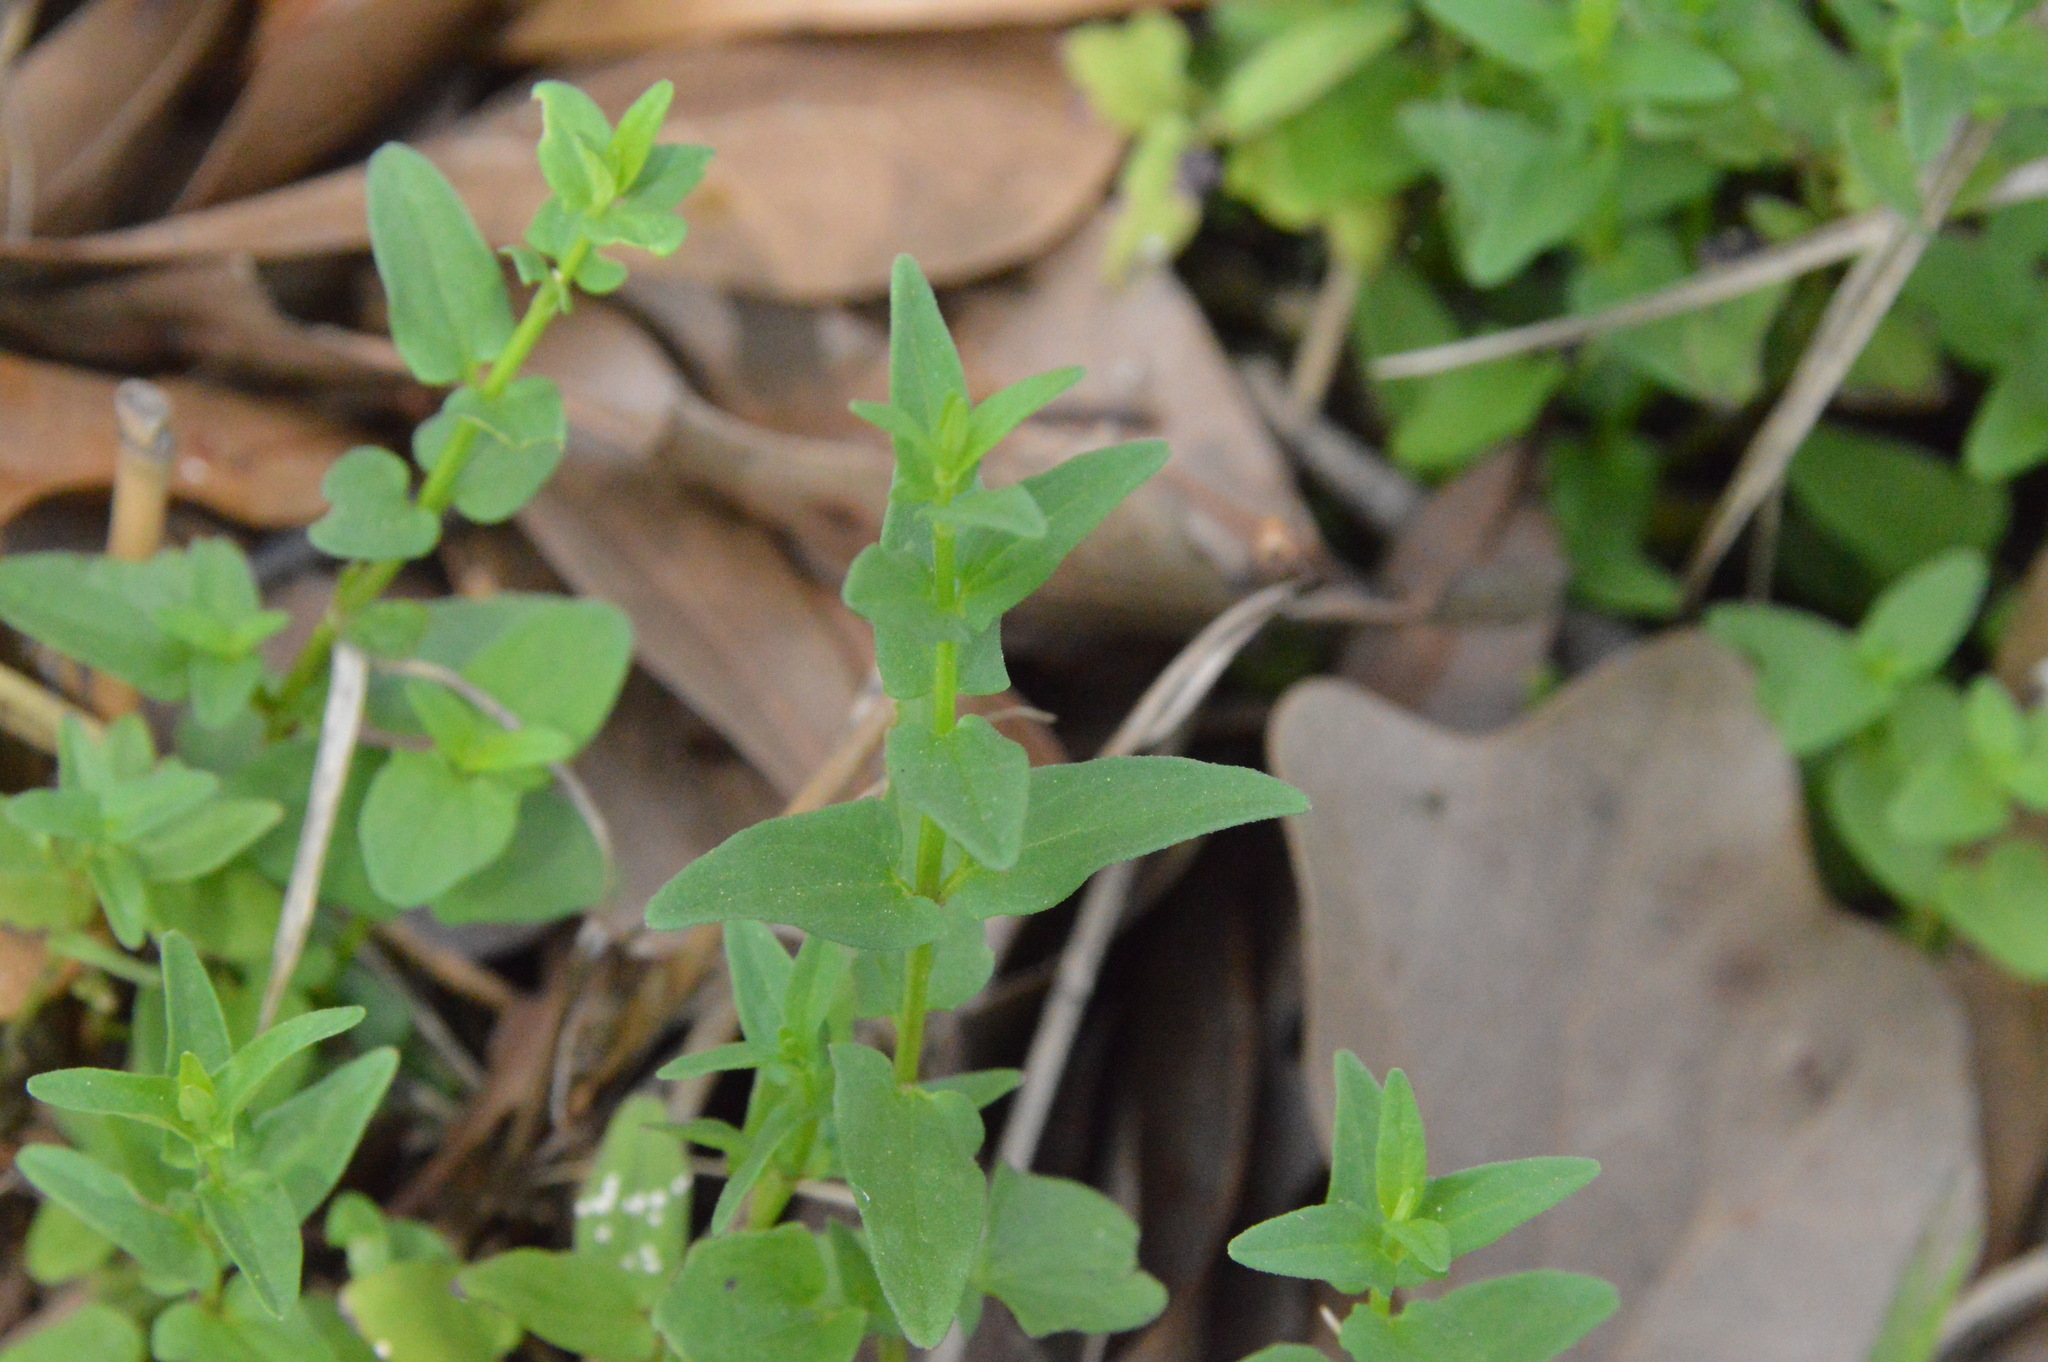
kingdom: Plantae
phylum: Tracheophyta
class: Magnoliopsida
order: Lamiales
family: Lamiaceae
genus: Scutellaria
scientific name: Scutellaria racemosa
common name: South american skullcap
